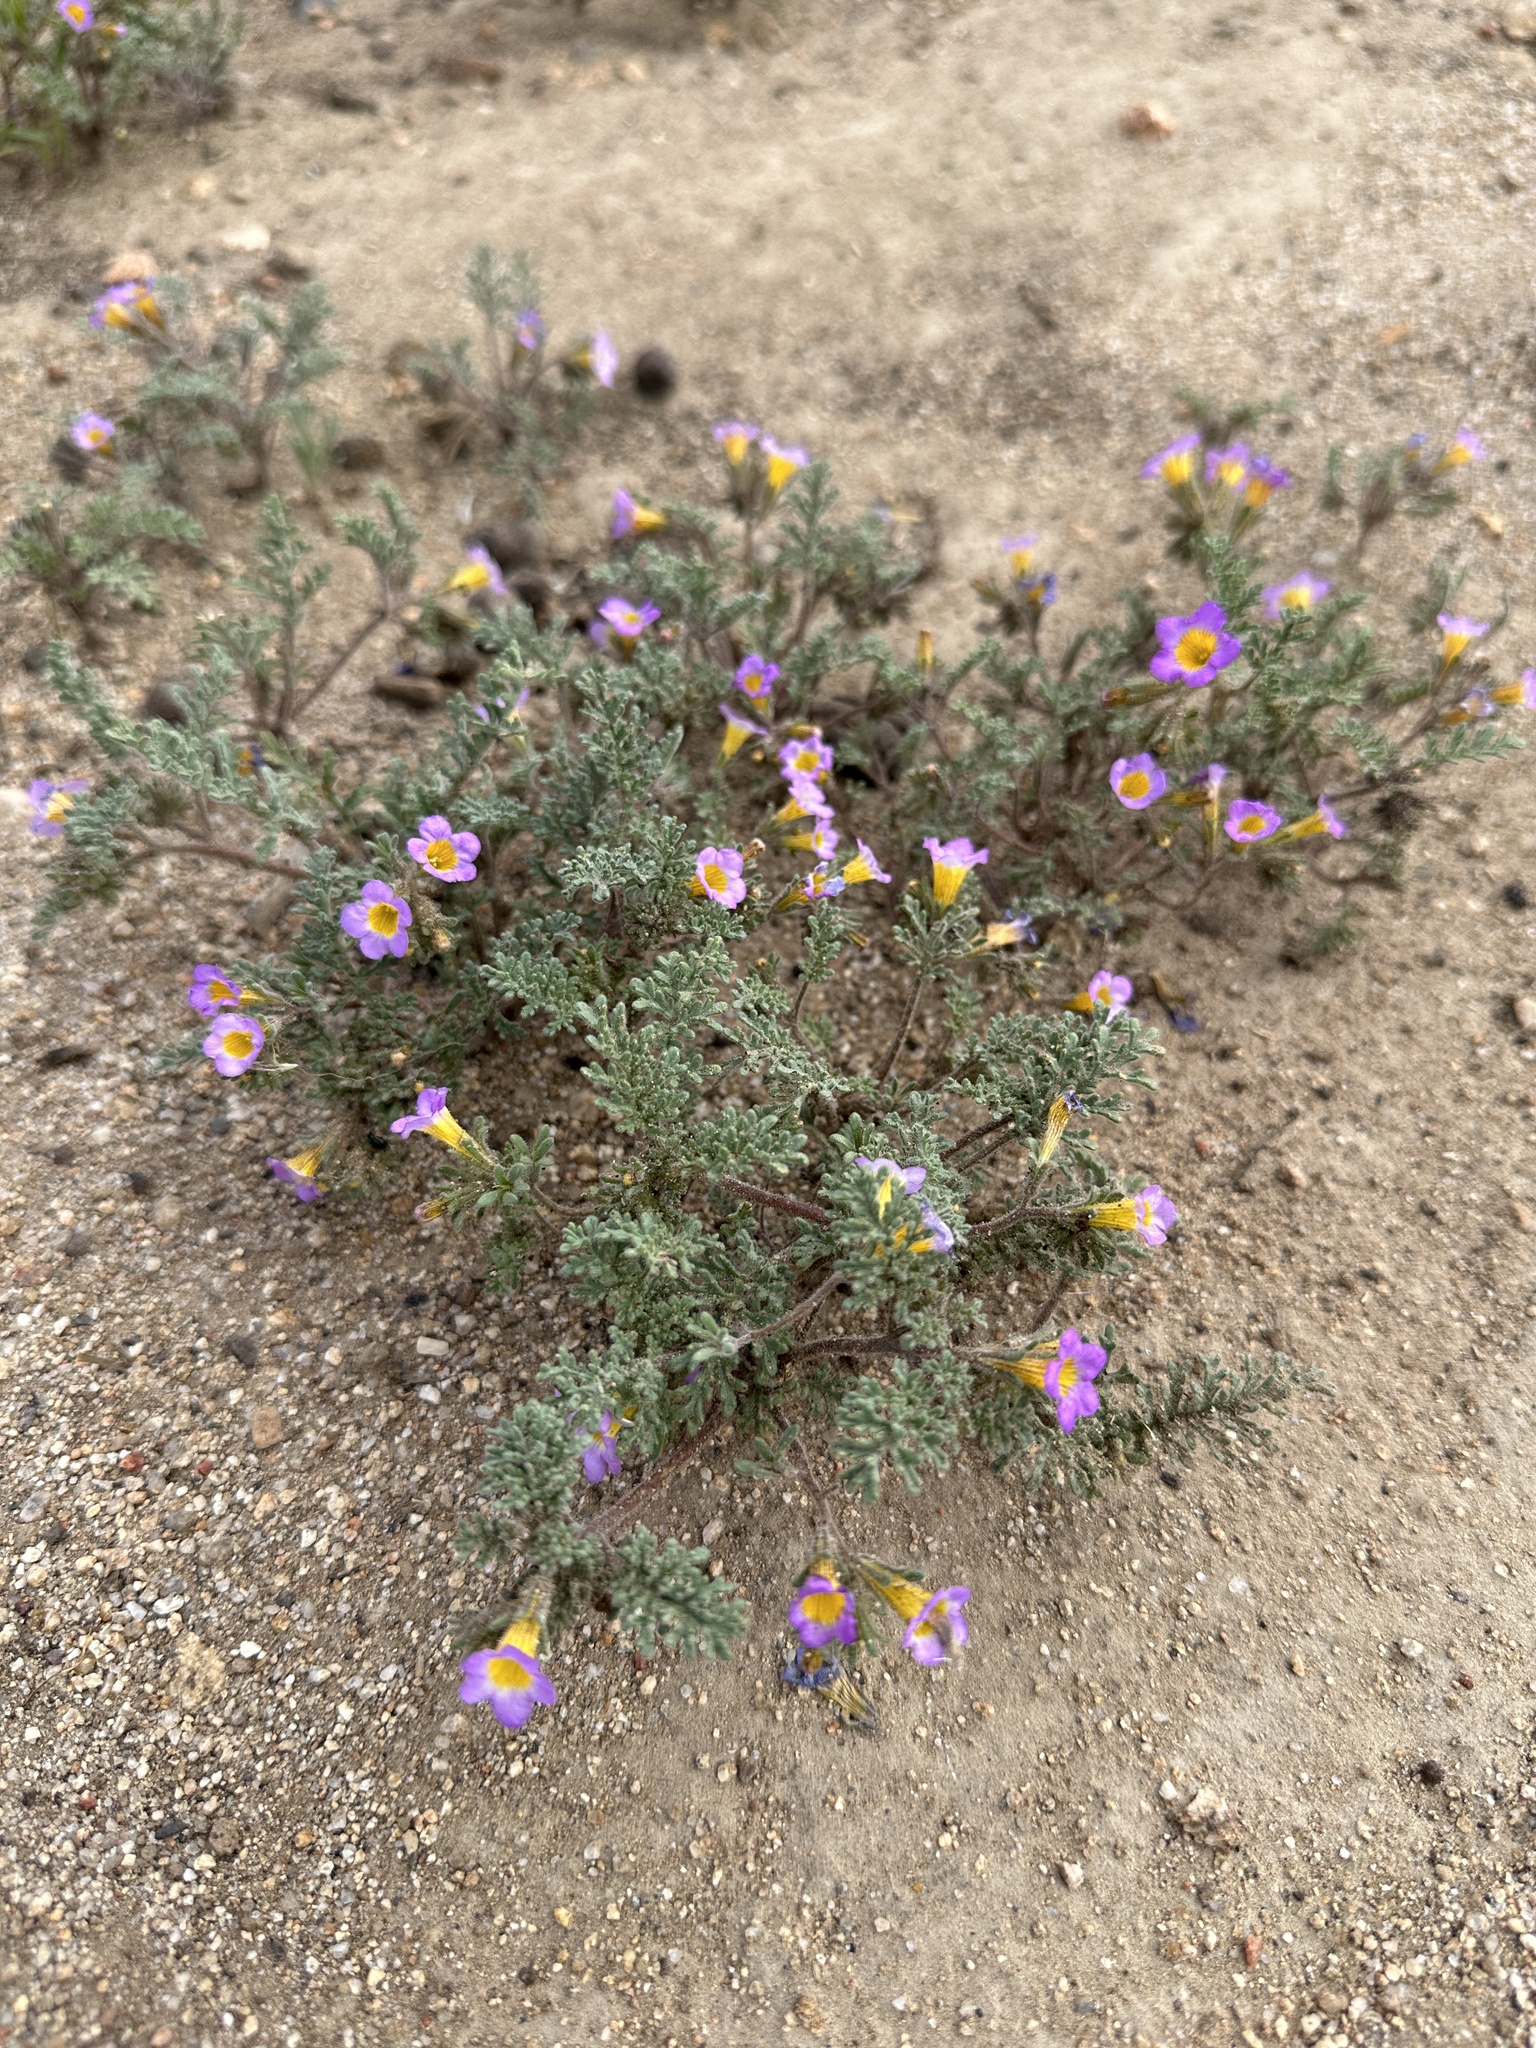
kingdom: Plantae
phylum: Tracheophyta
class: Magnoliopsida
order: Boraginales
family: Hydrophyllaceae
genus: Phacelia
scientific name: Phacelia bicolor
